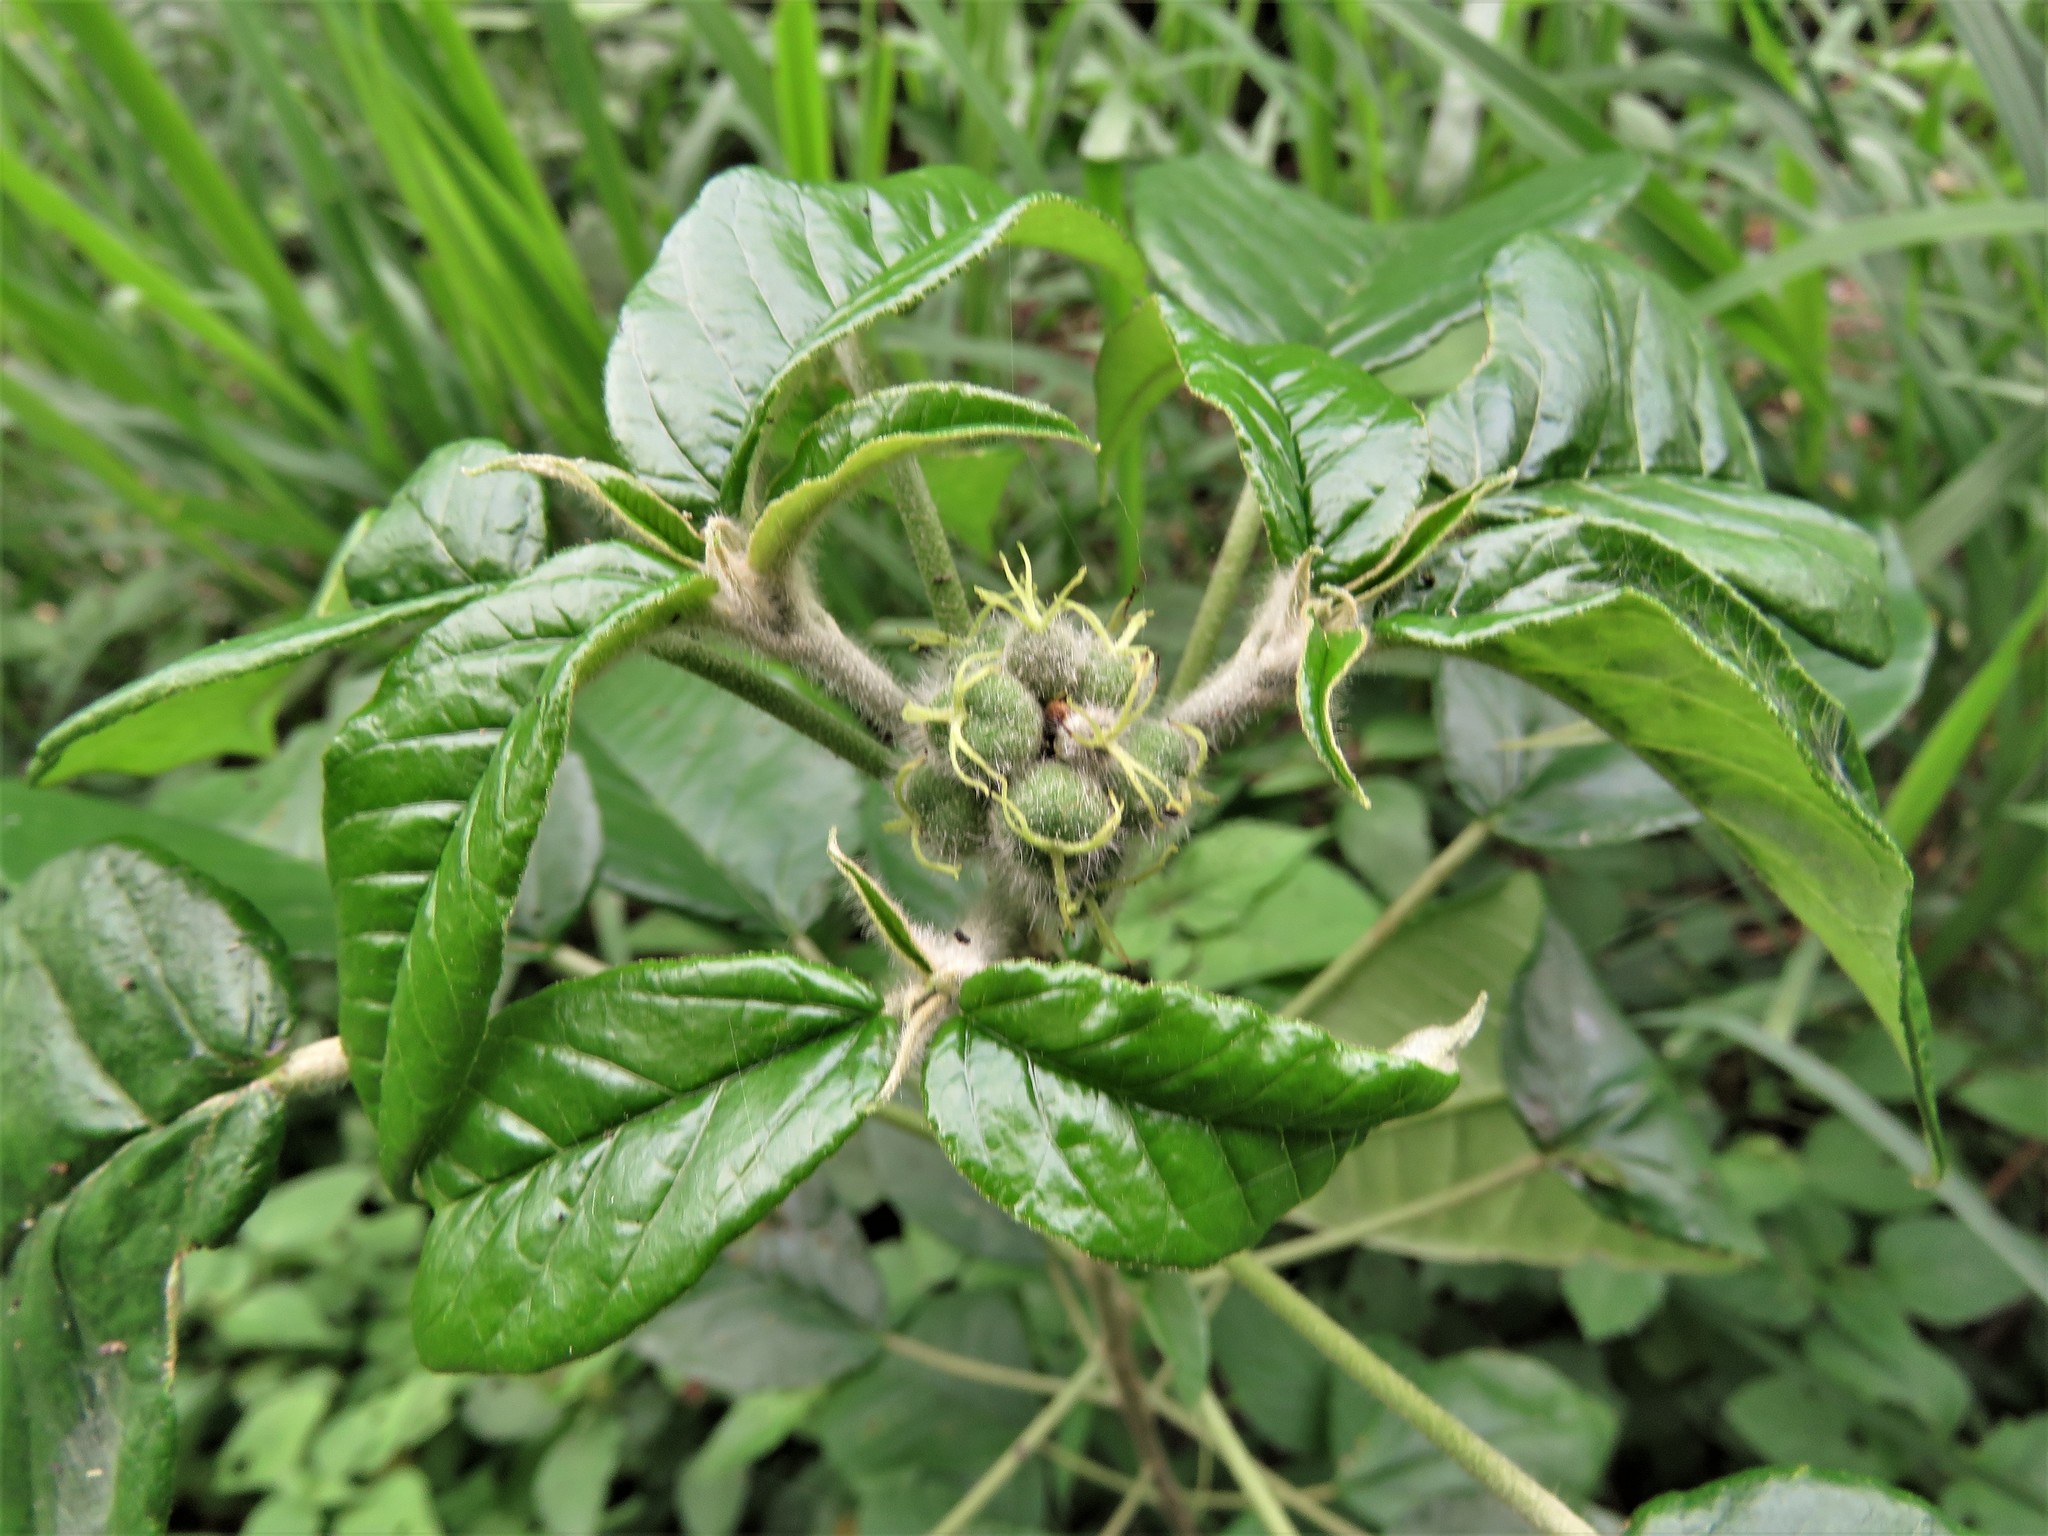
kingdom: Plantae
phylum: Tracheophyta
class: Magnoliopsida
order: Malpighiales
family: Euphorbiaceae
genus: Croton
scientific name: Croton cortesianus
